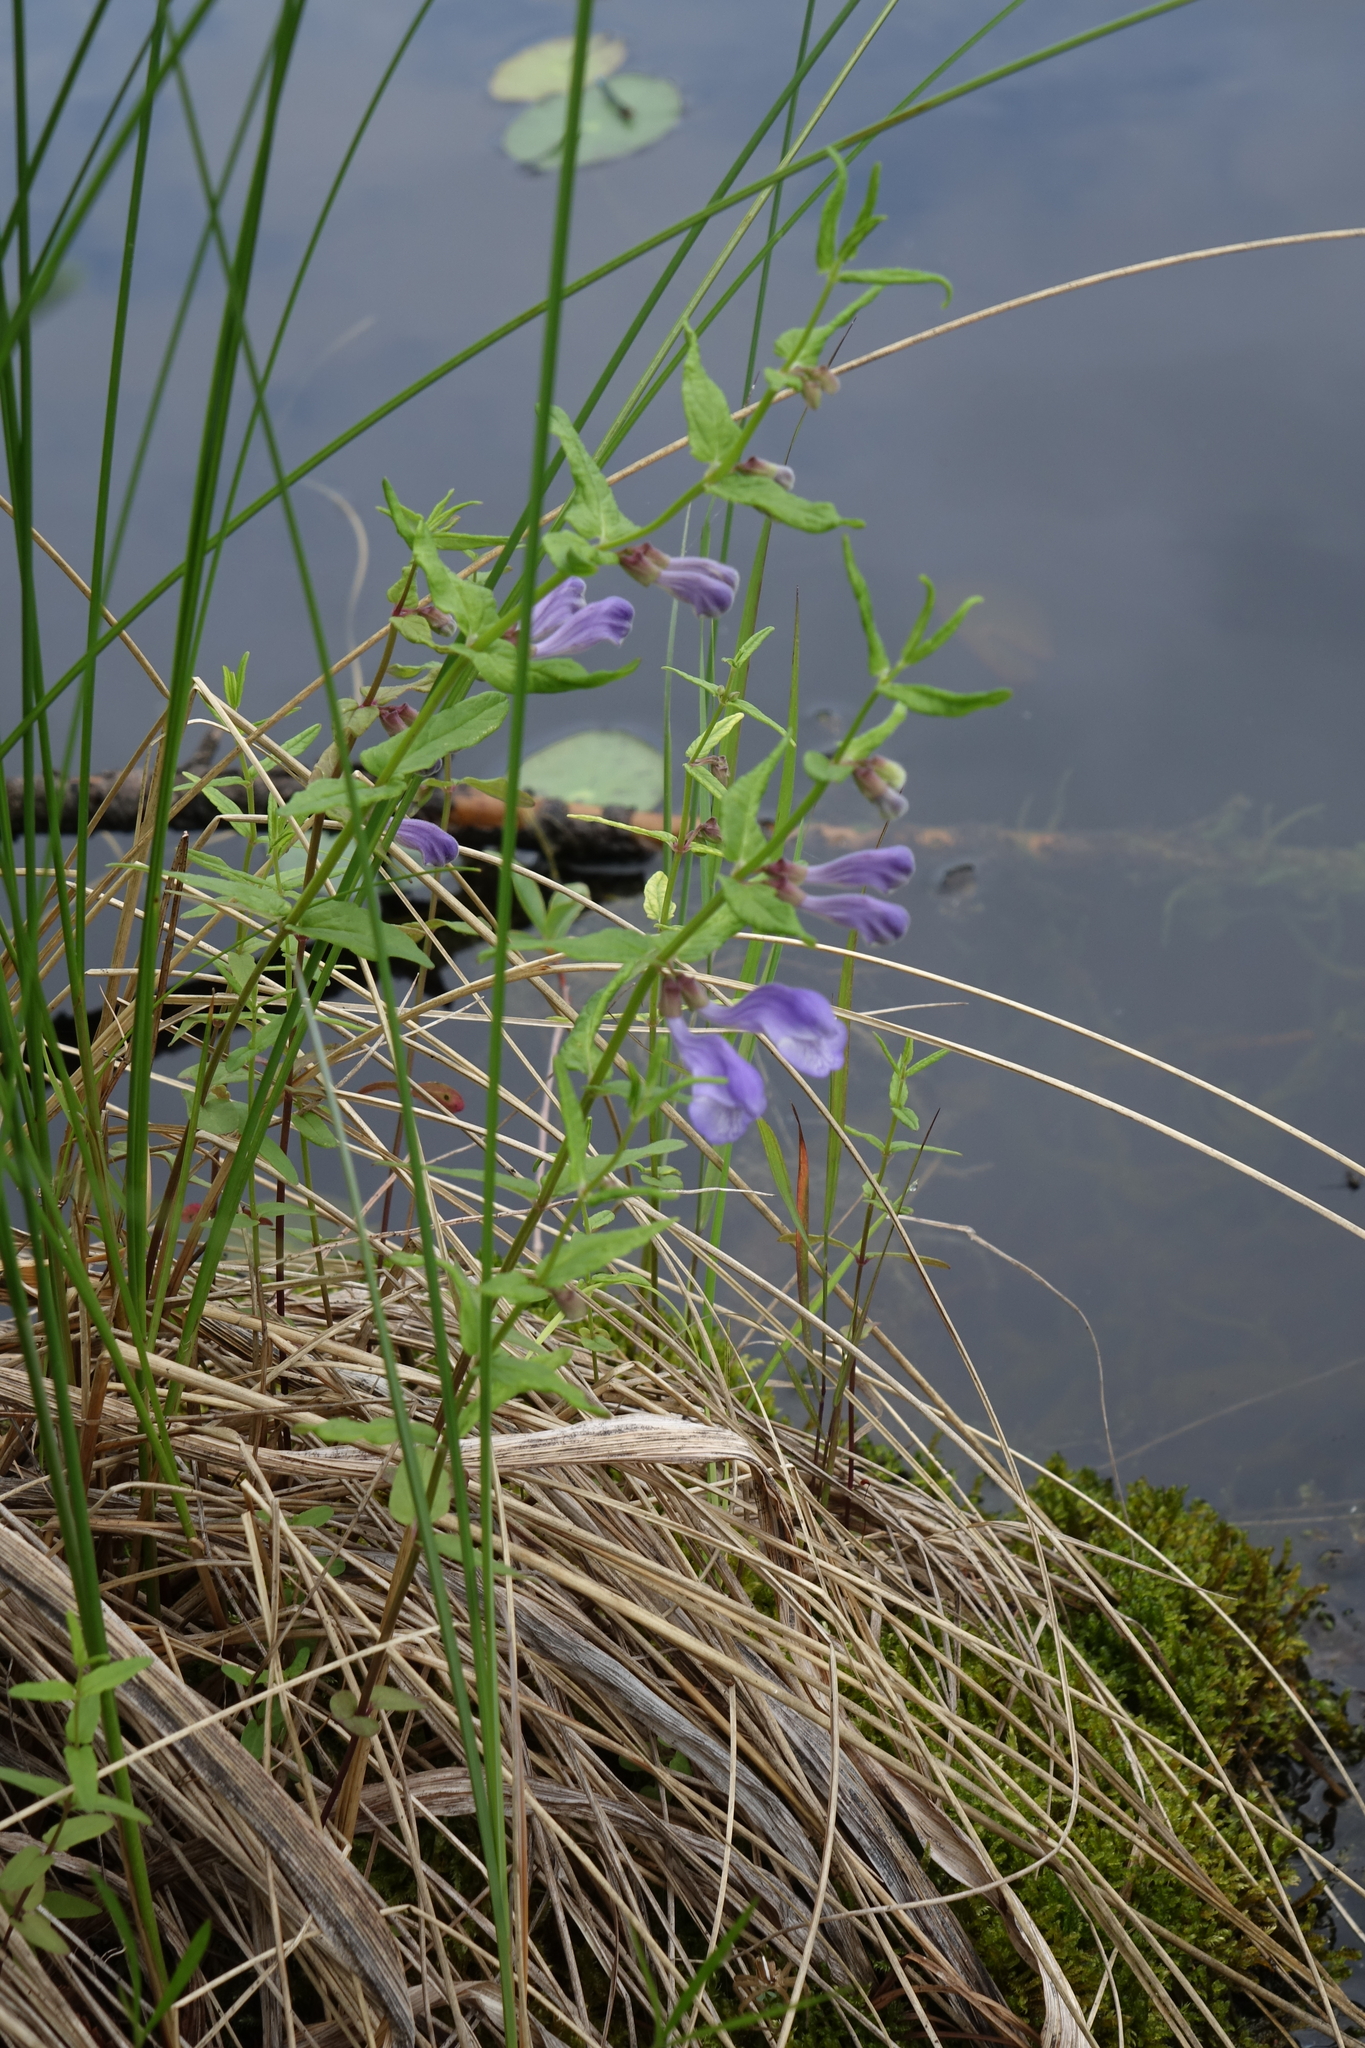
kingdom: Plantae
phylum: Tracheophyta
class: Magnoliopsida
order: Lamiales
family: Lamiaceae
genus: Scutellaria
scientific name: Scutellaria galericulata
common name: Skullcap
